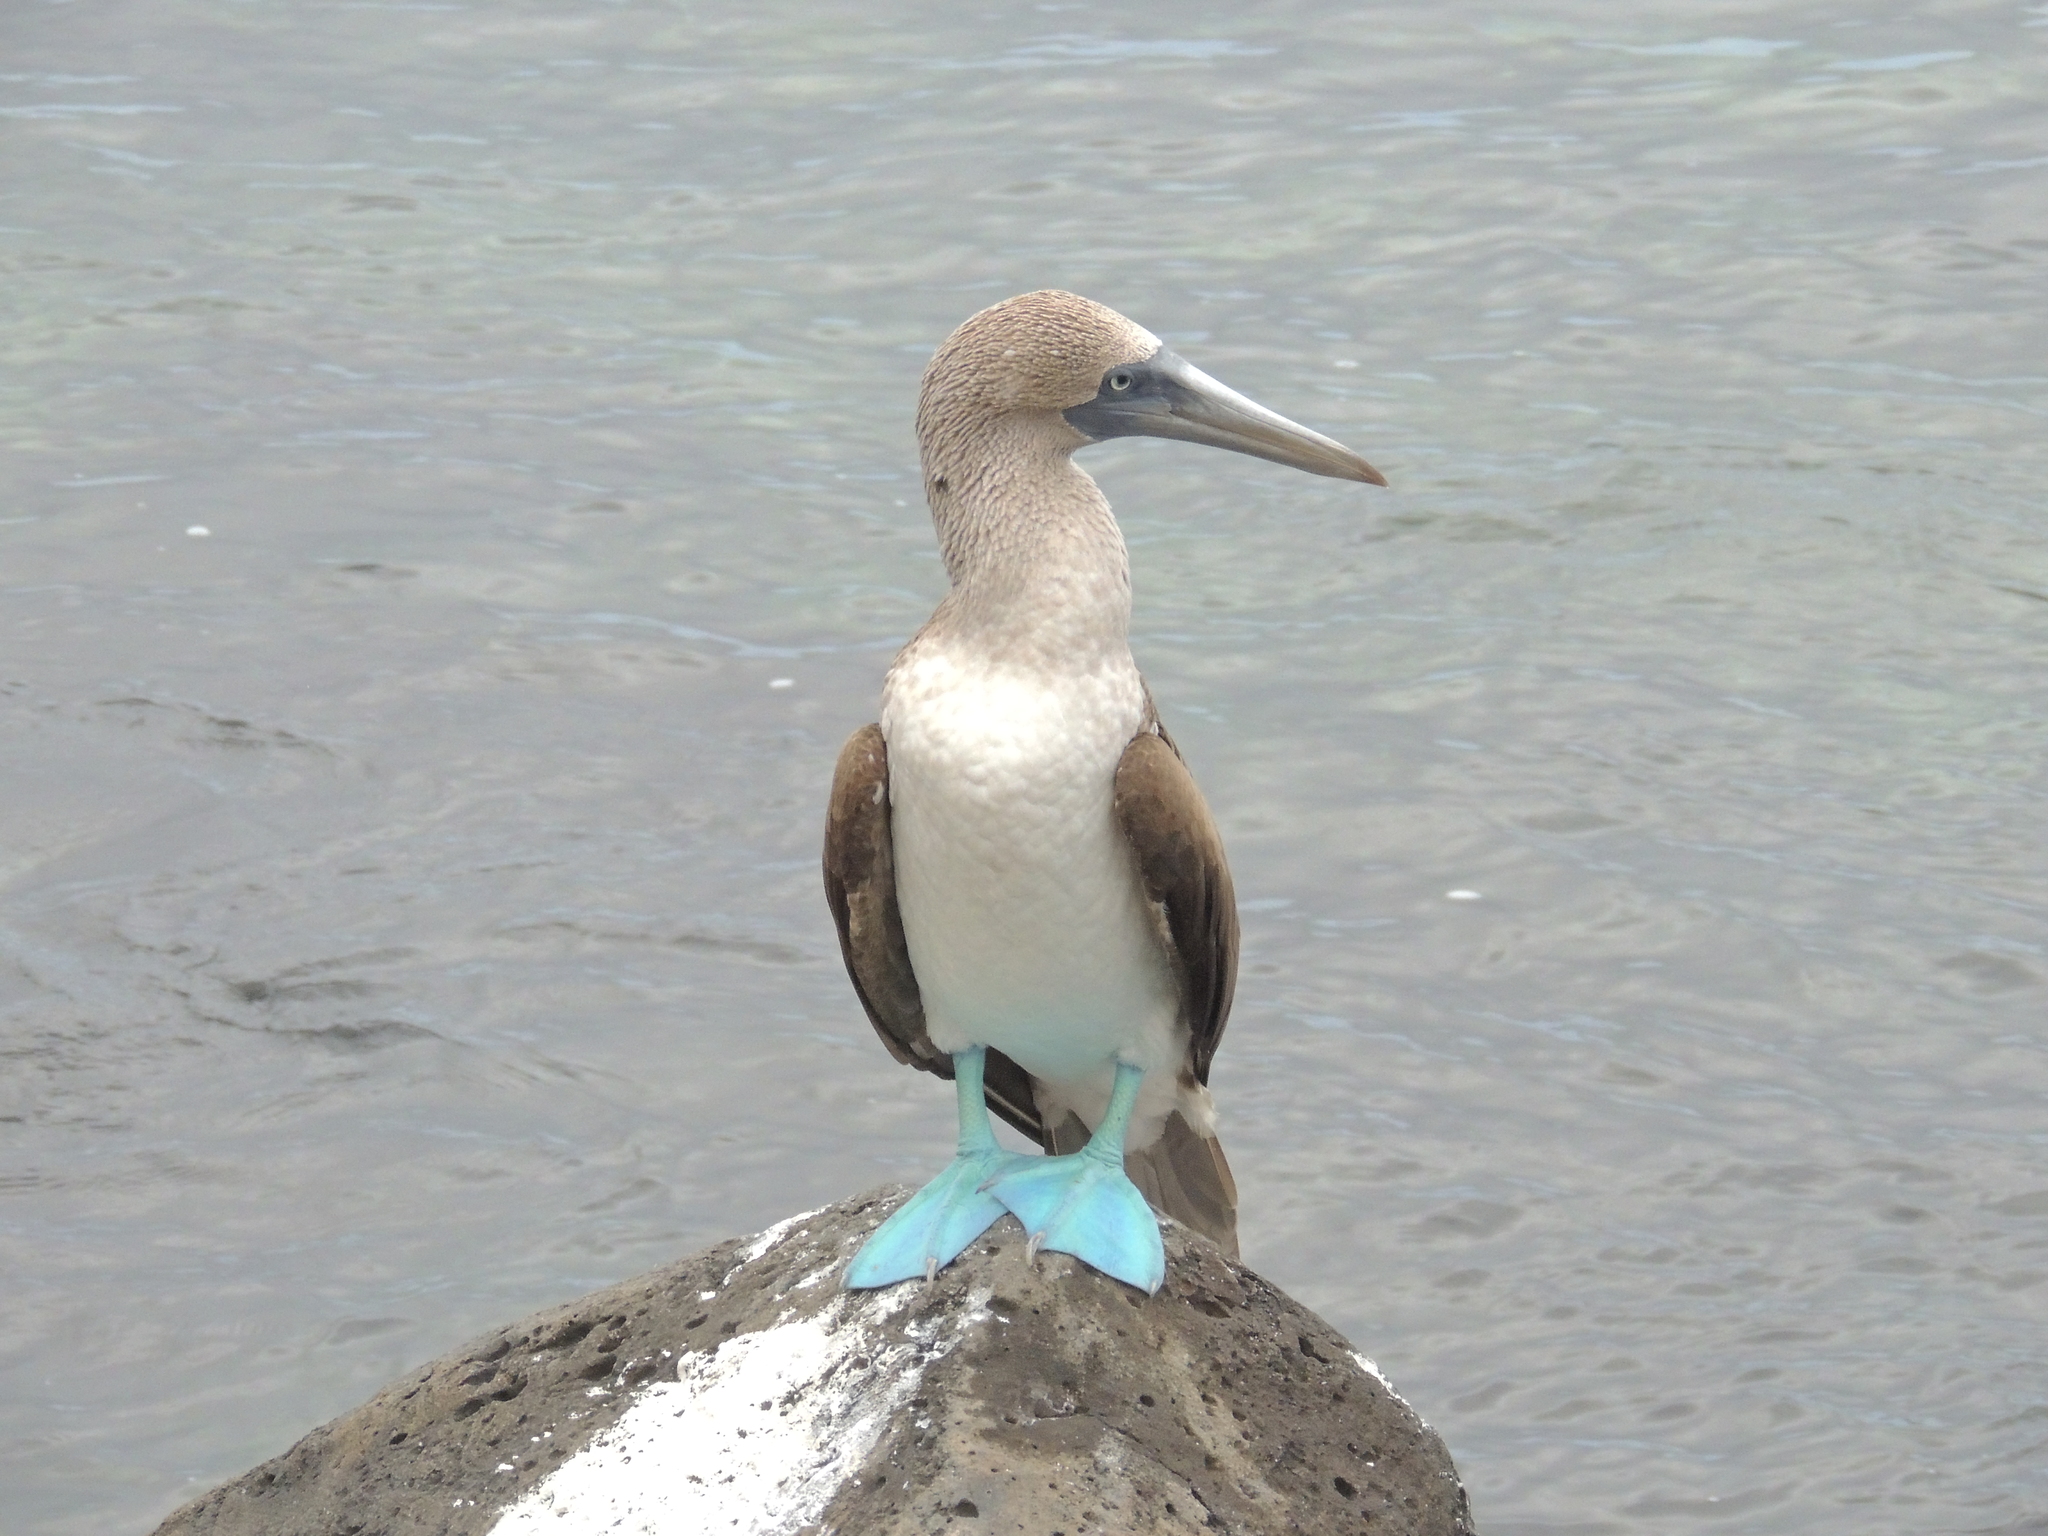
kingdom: Animalia
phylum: Chordata
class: Aves
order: Suliformes
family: Sulidae
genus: Sula
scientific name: Sula nebouxii
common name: Blue-footed booby
